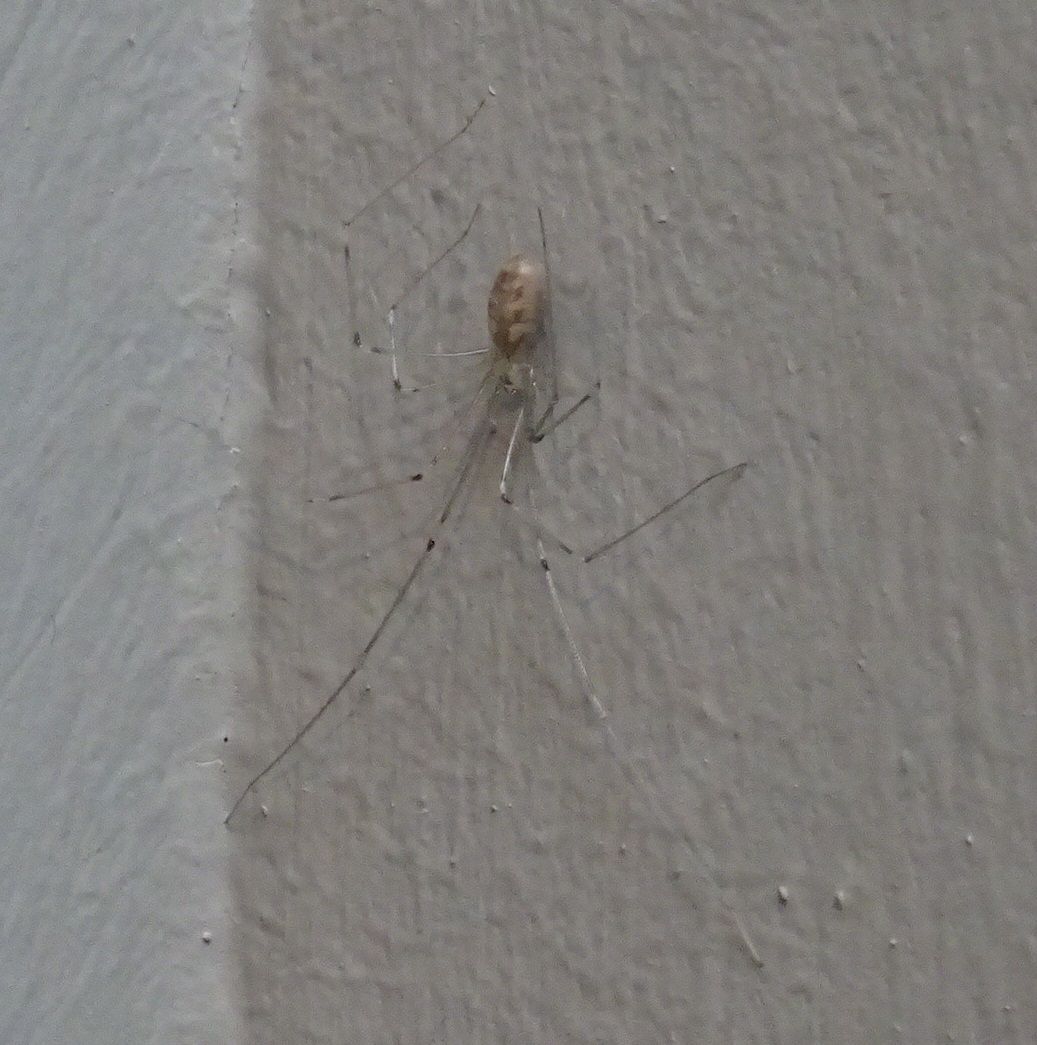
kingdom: Animalia
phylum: Arthropoda
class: Arachnida
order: Araneae
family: Pholcidae
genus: Pholcus
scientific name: Pholcus phalangioides
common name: Longbodied cellar spider
